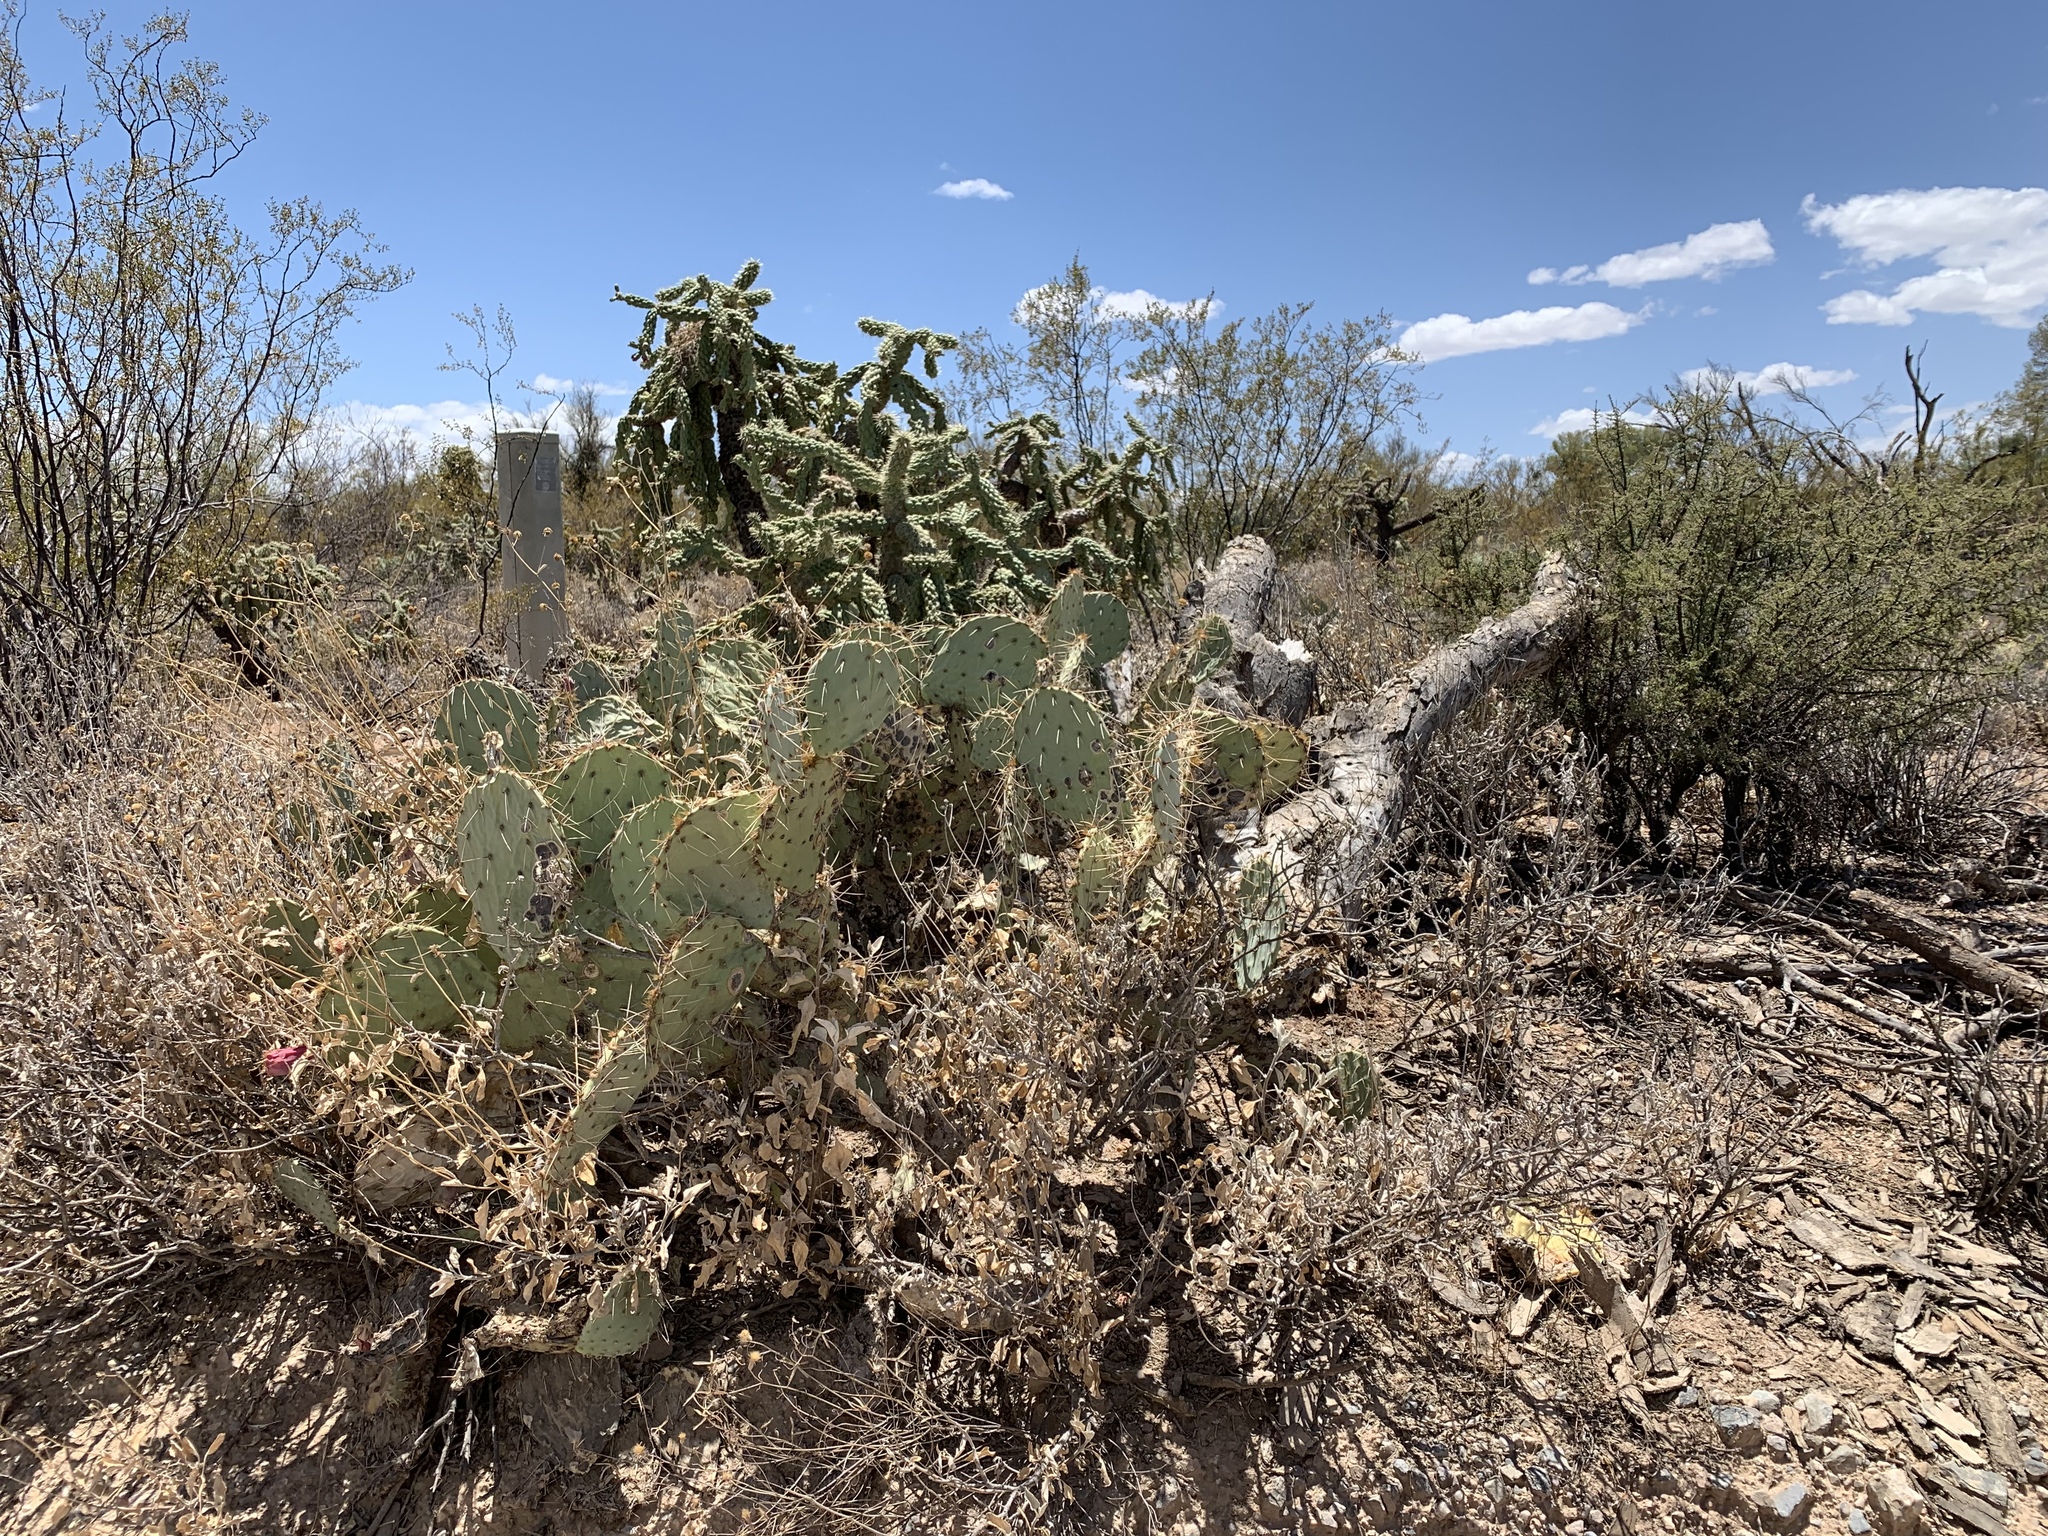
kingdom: Plantae
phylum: Tracheophyta
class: Magnoliopsida
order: Caryophyllales
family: Cactaceae
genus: Opuntia
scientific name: Opuntia engelmannii
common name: Cactus-apple
